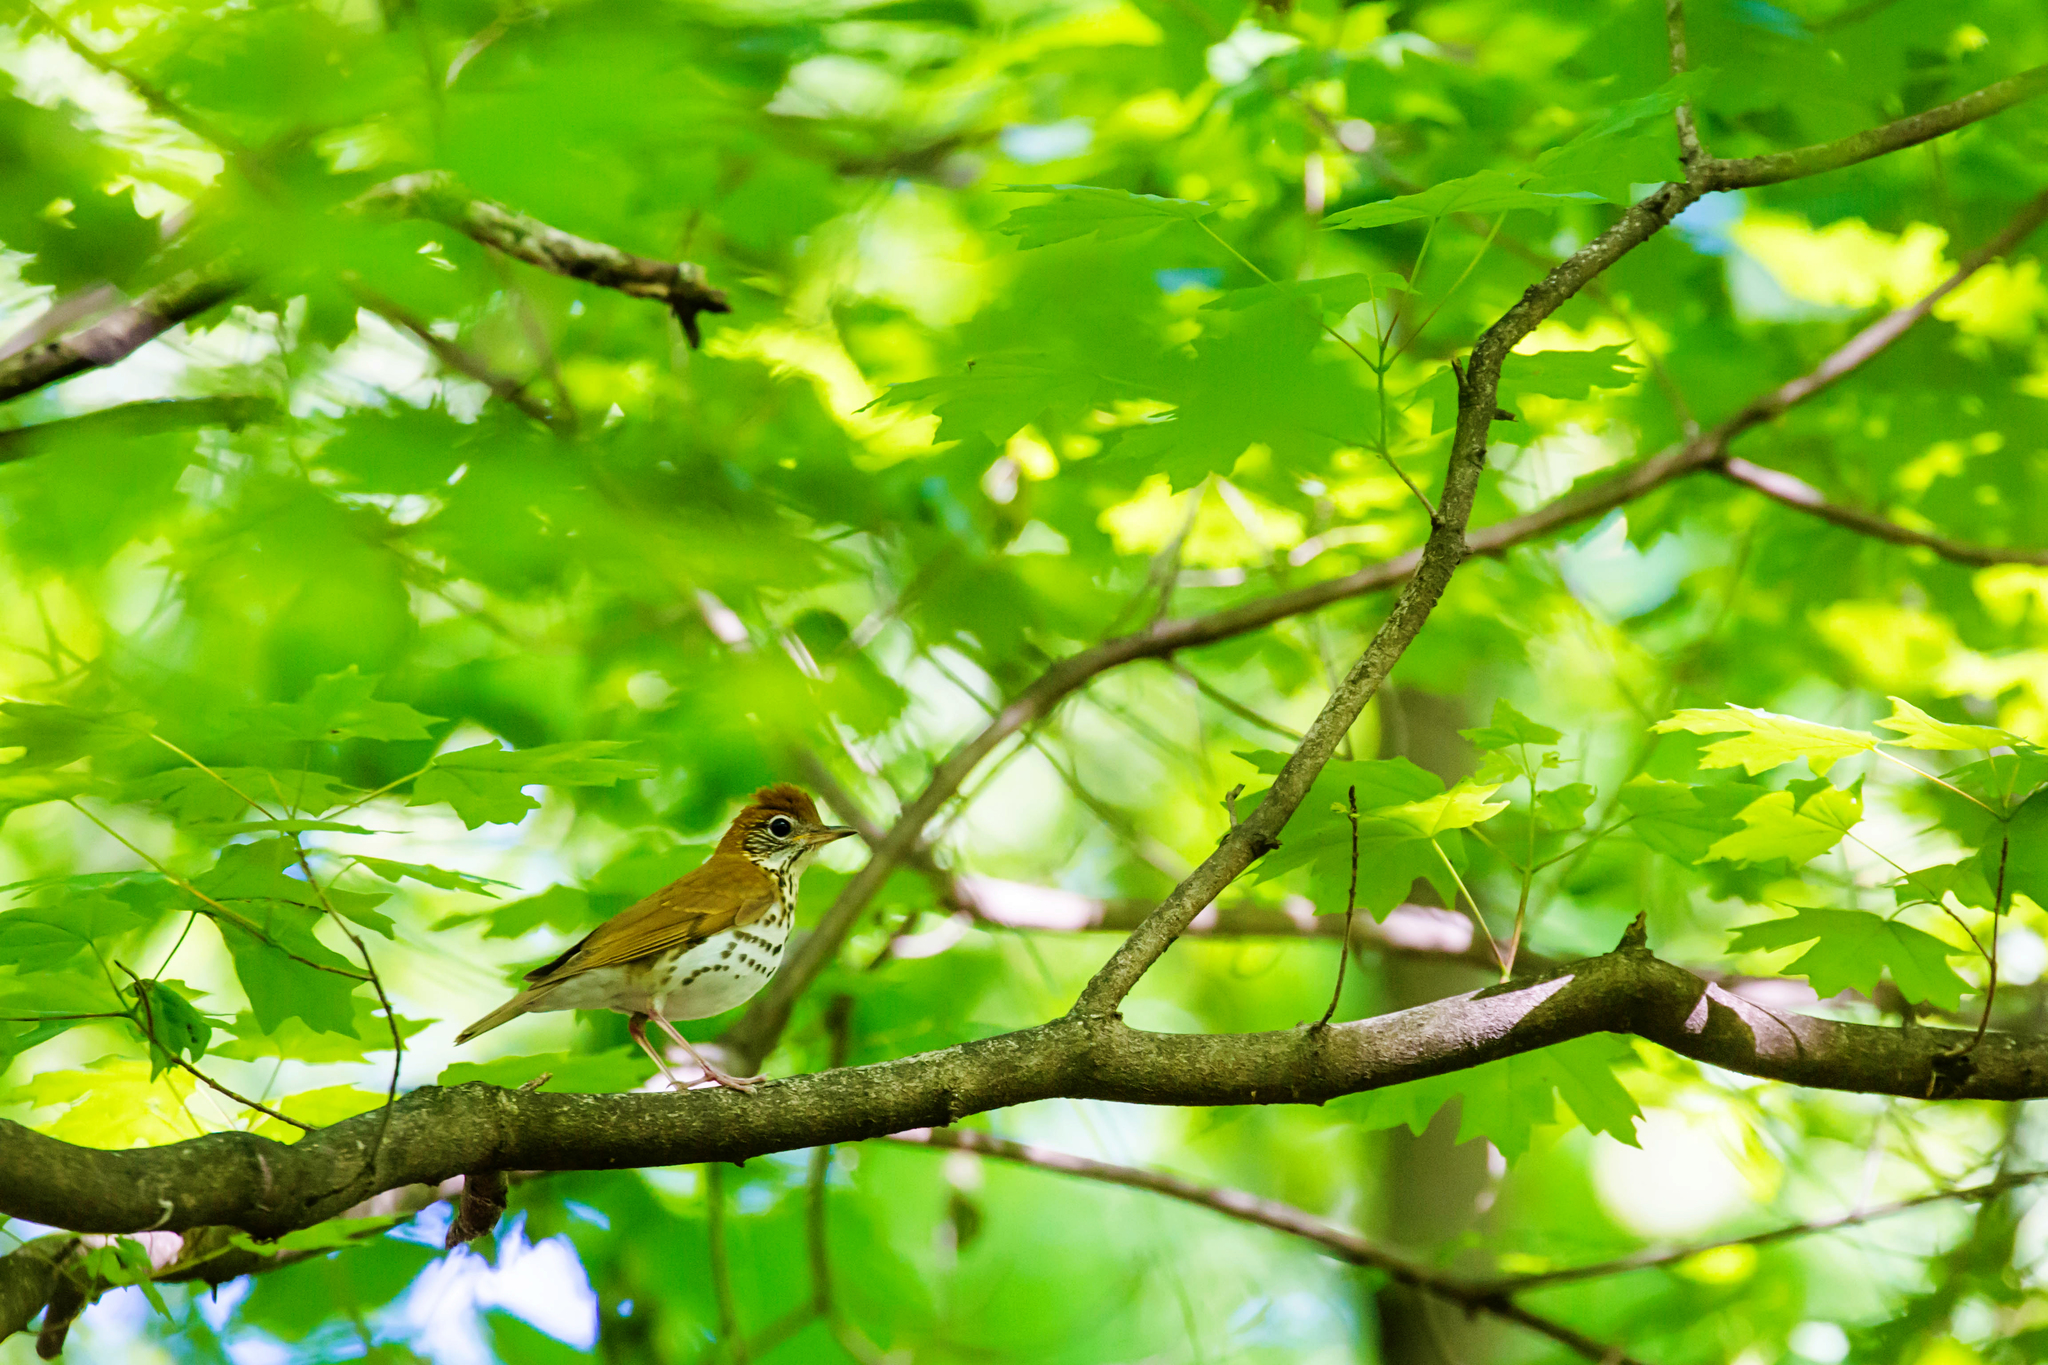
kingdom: Animalia
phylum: Chordata
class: Aves
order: Passeriformes
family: Turdidae
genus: Hylocichla
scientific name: Hylocichla mustelina
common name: Wood thrush
